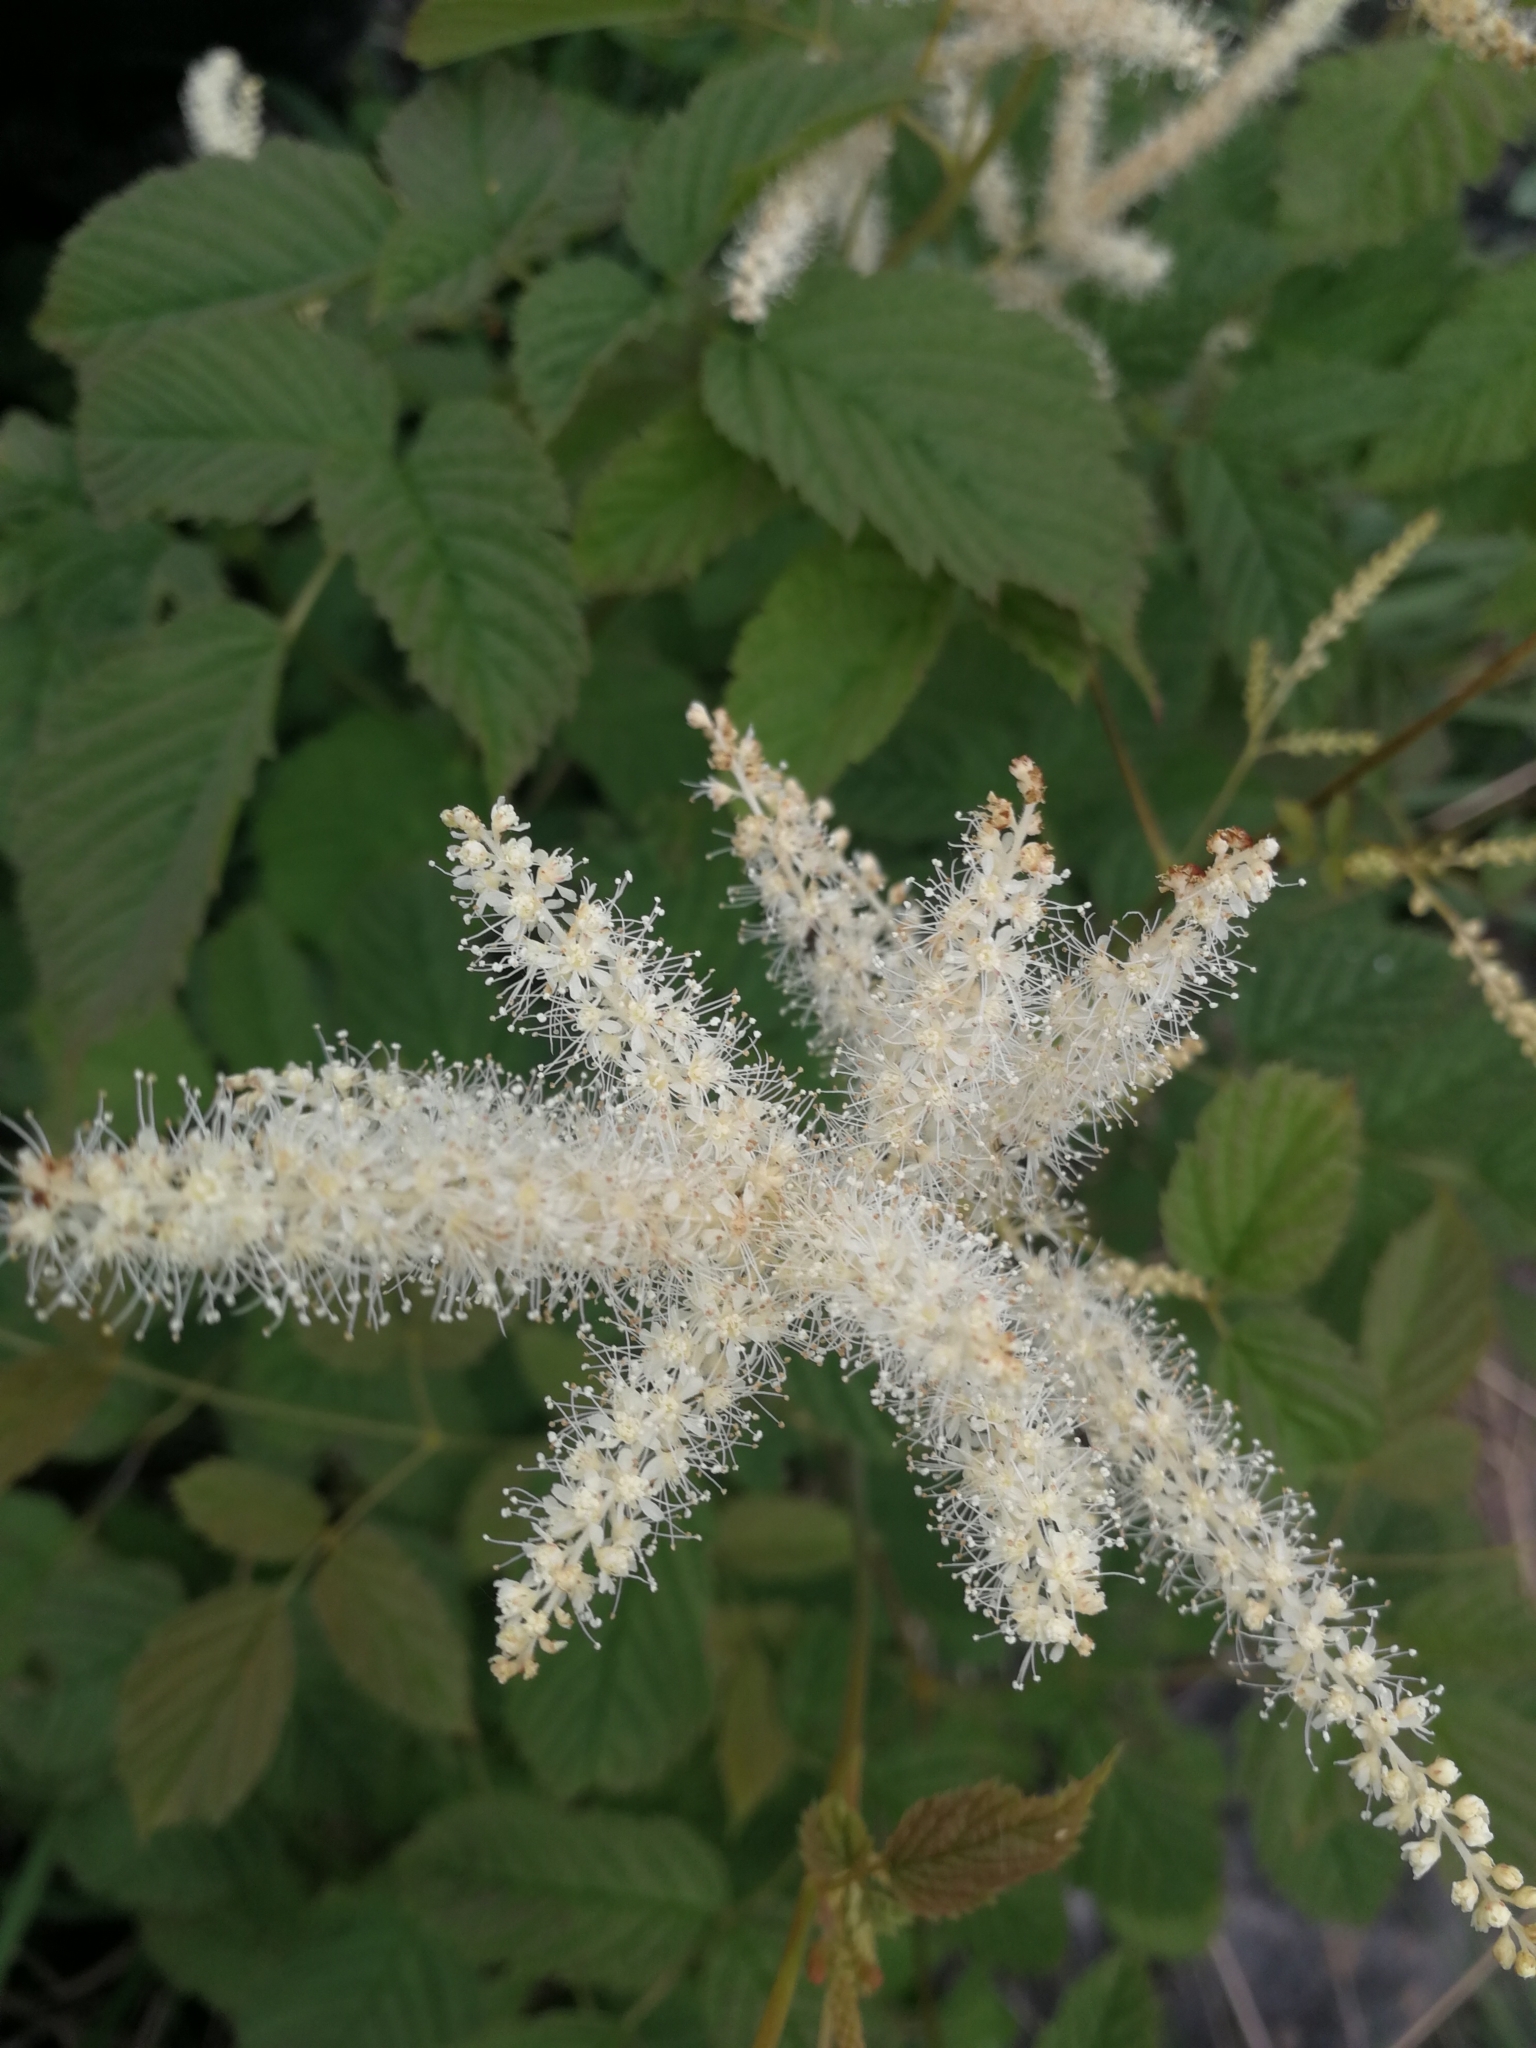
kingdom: Plantae
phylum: Tracheophyta
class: Magnoliopsida
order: Rosales
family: Rosaceae
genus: Aruncus
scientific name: Aruncus dioicus
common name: Buck's-beard
